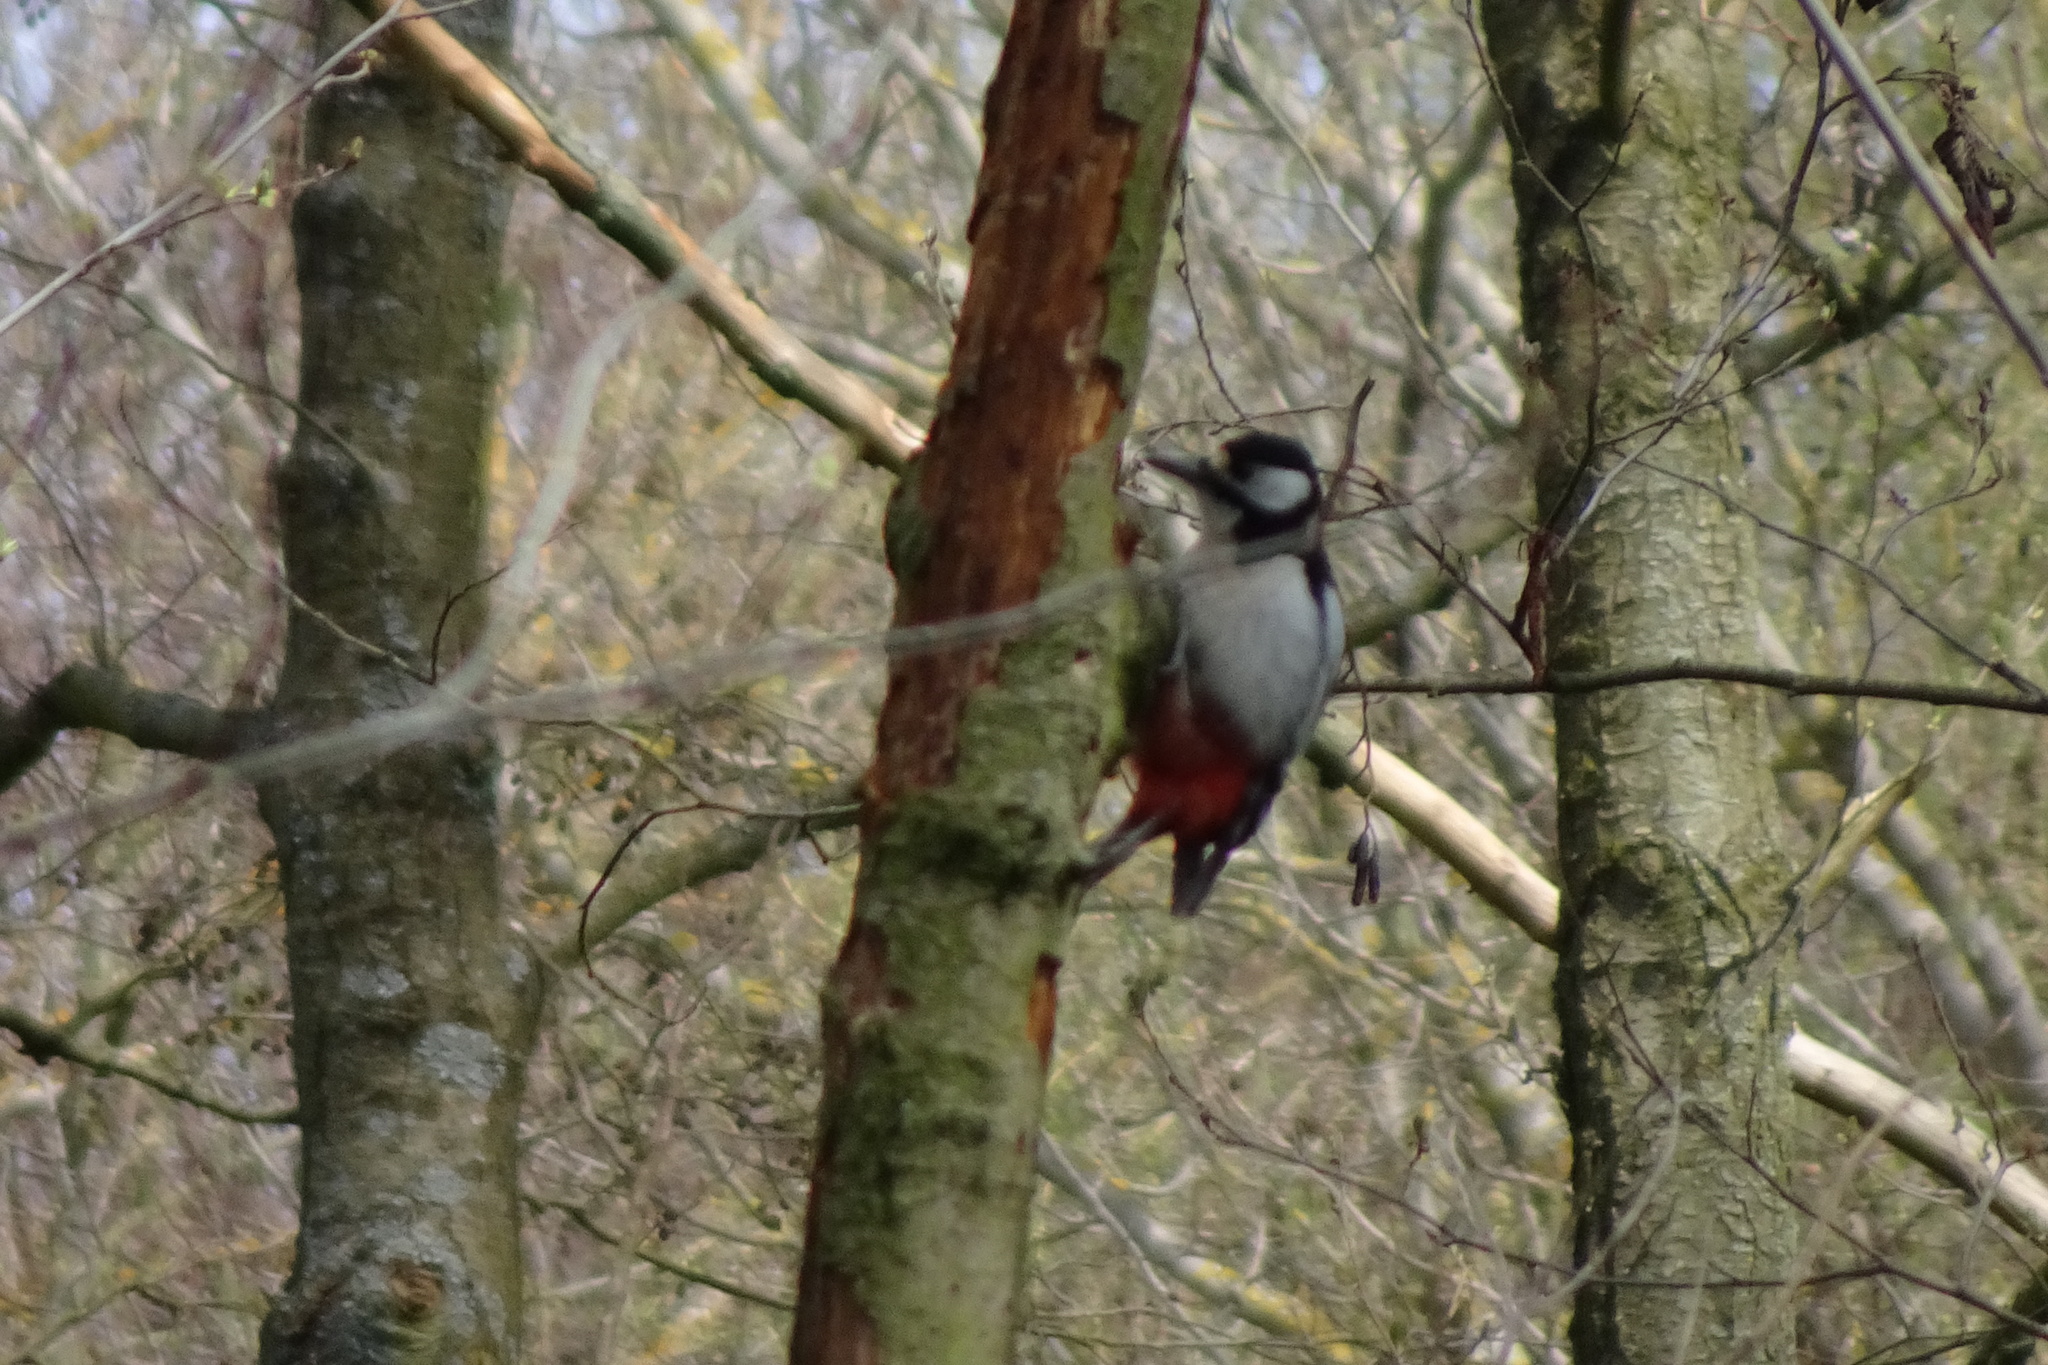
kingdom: Animalia
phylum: Chordata
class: Aves
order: Piciformes
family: Picidae
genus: Dendrocopos
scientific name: Dendrocopos major
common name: Great spotted woodpecker
